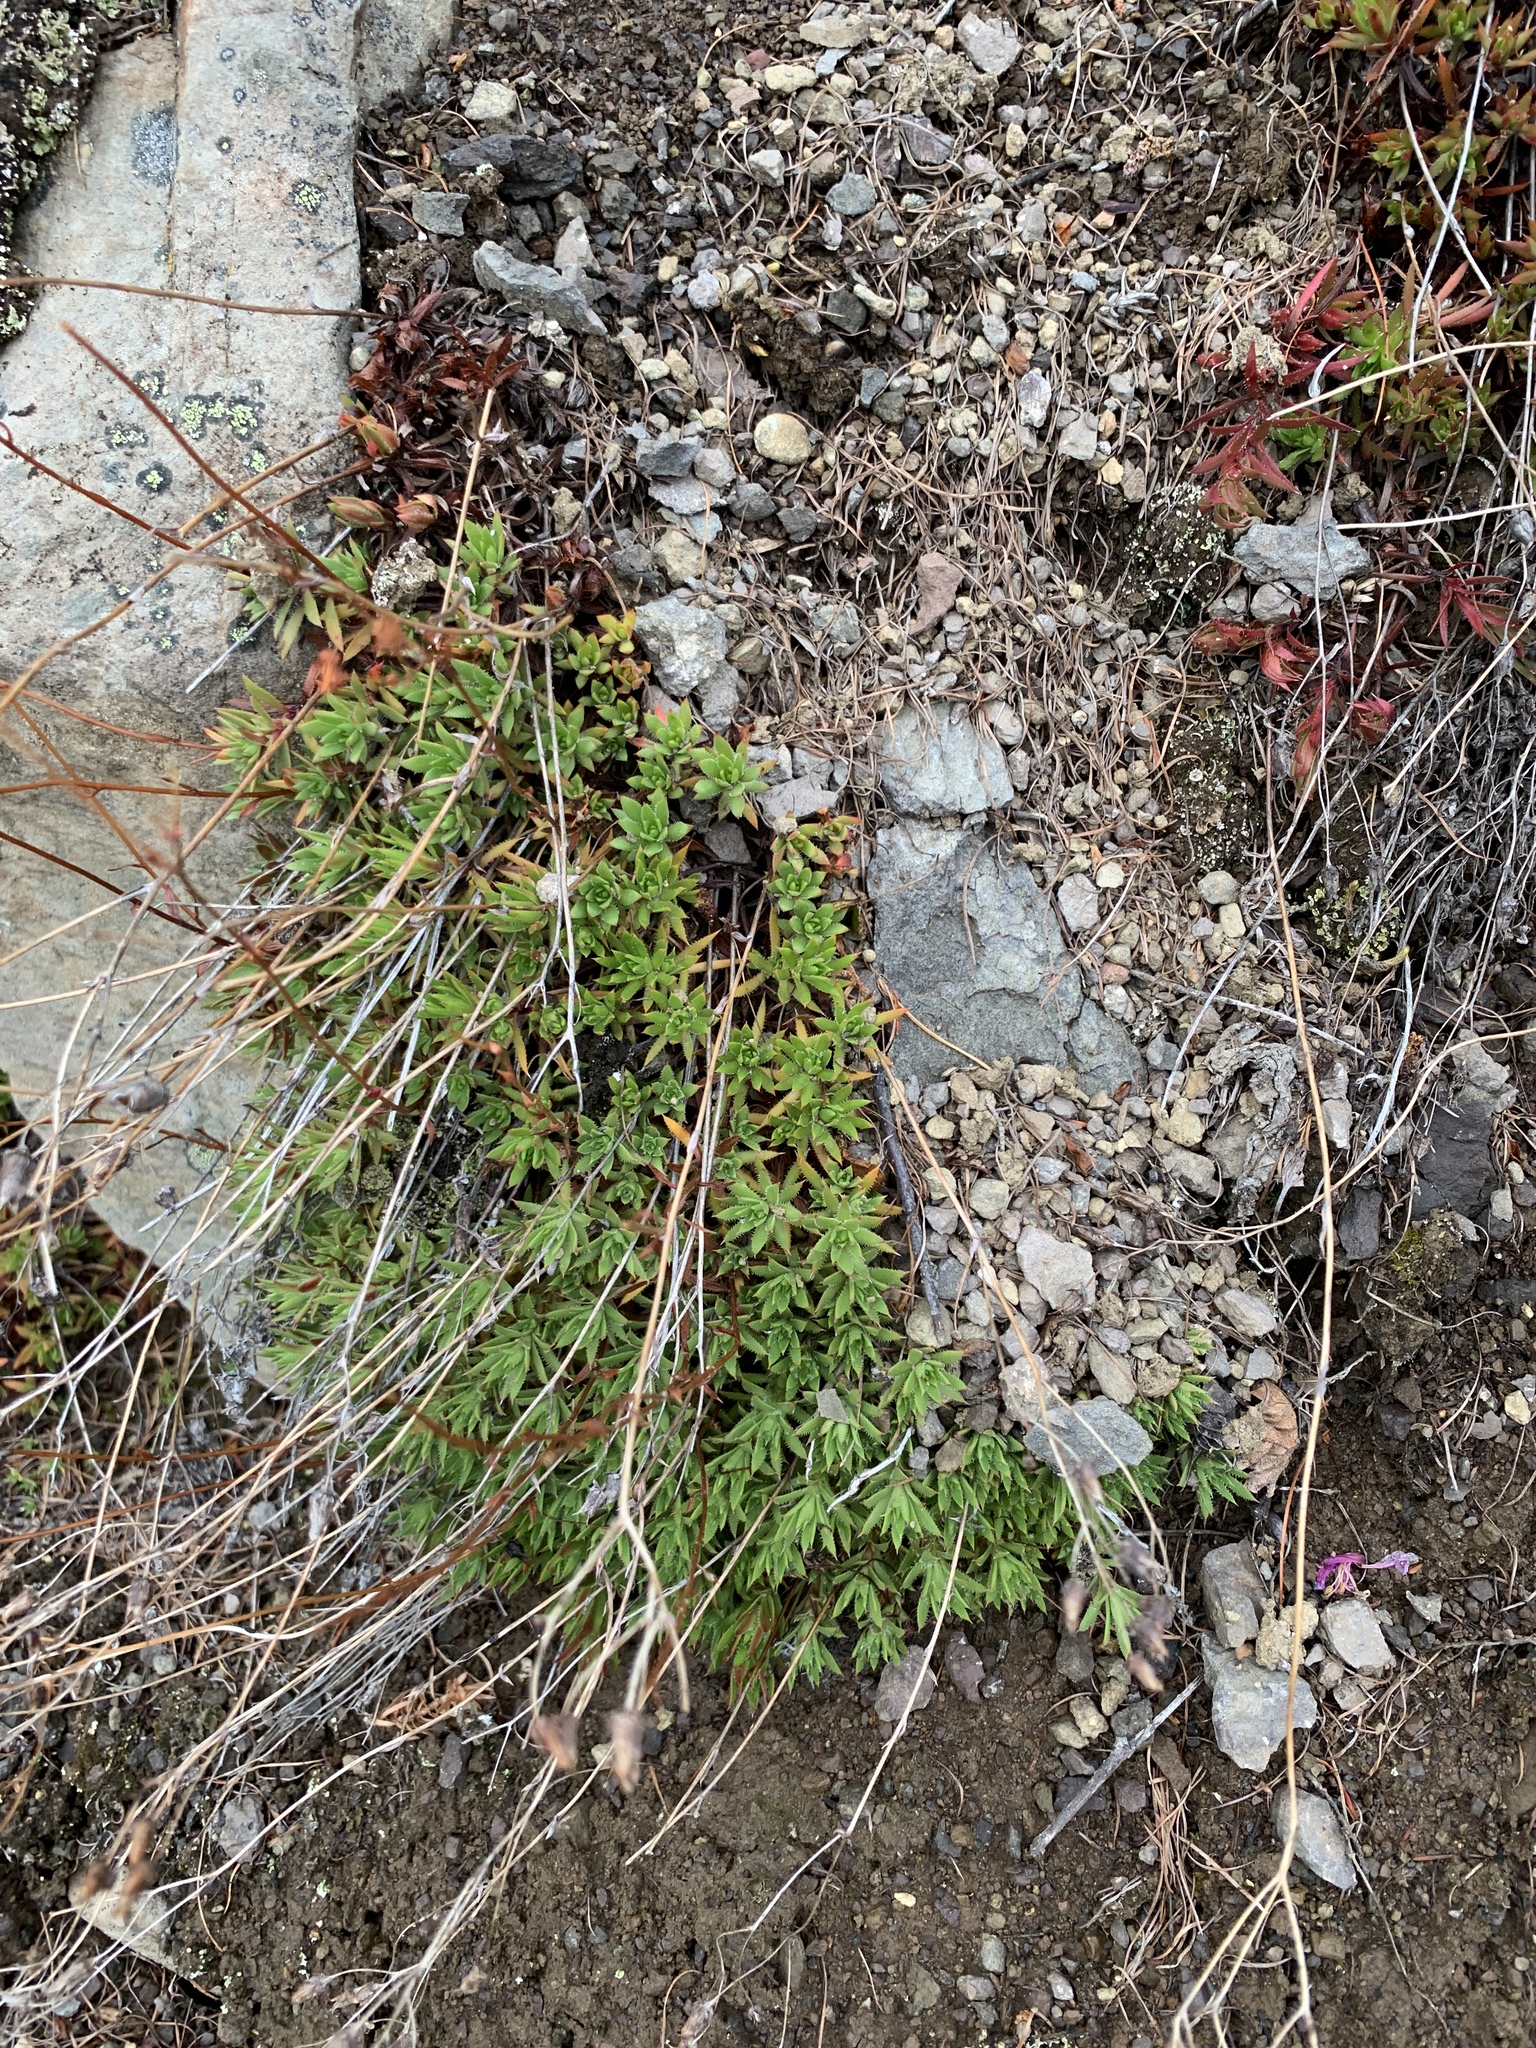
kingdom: Plantae
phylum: Tracheophyta
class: Magnoliopsida
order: Saxifragales
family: Saxifragaceae
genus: Saxifraga
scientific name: Saxifraga
